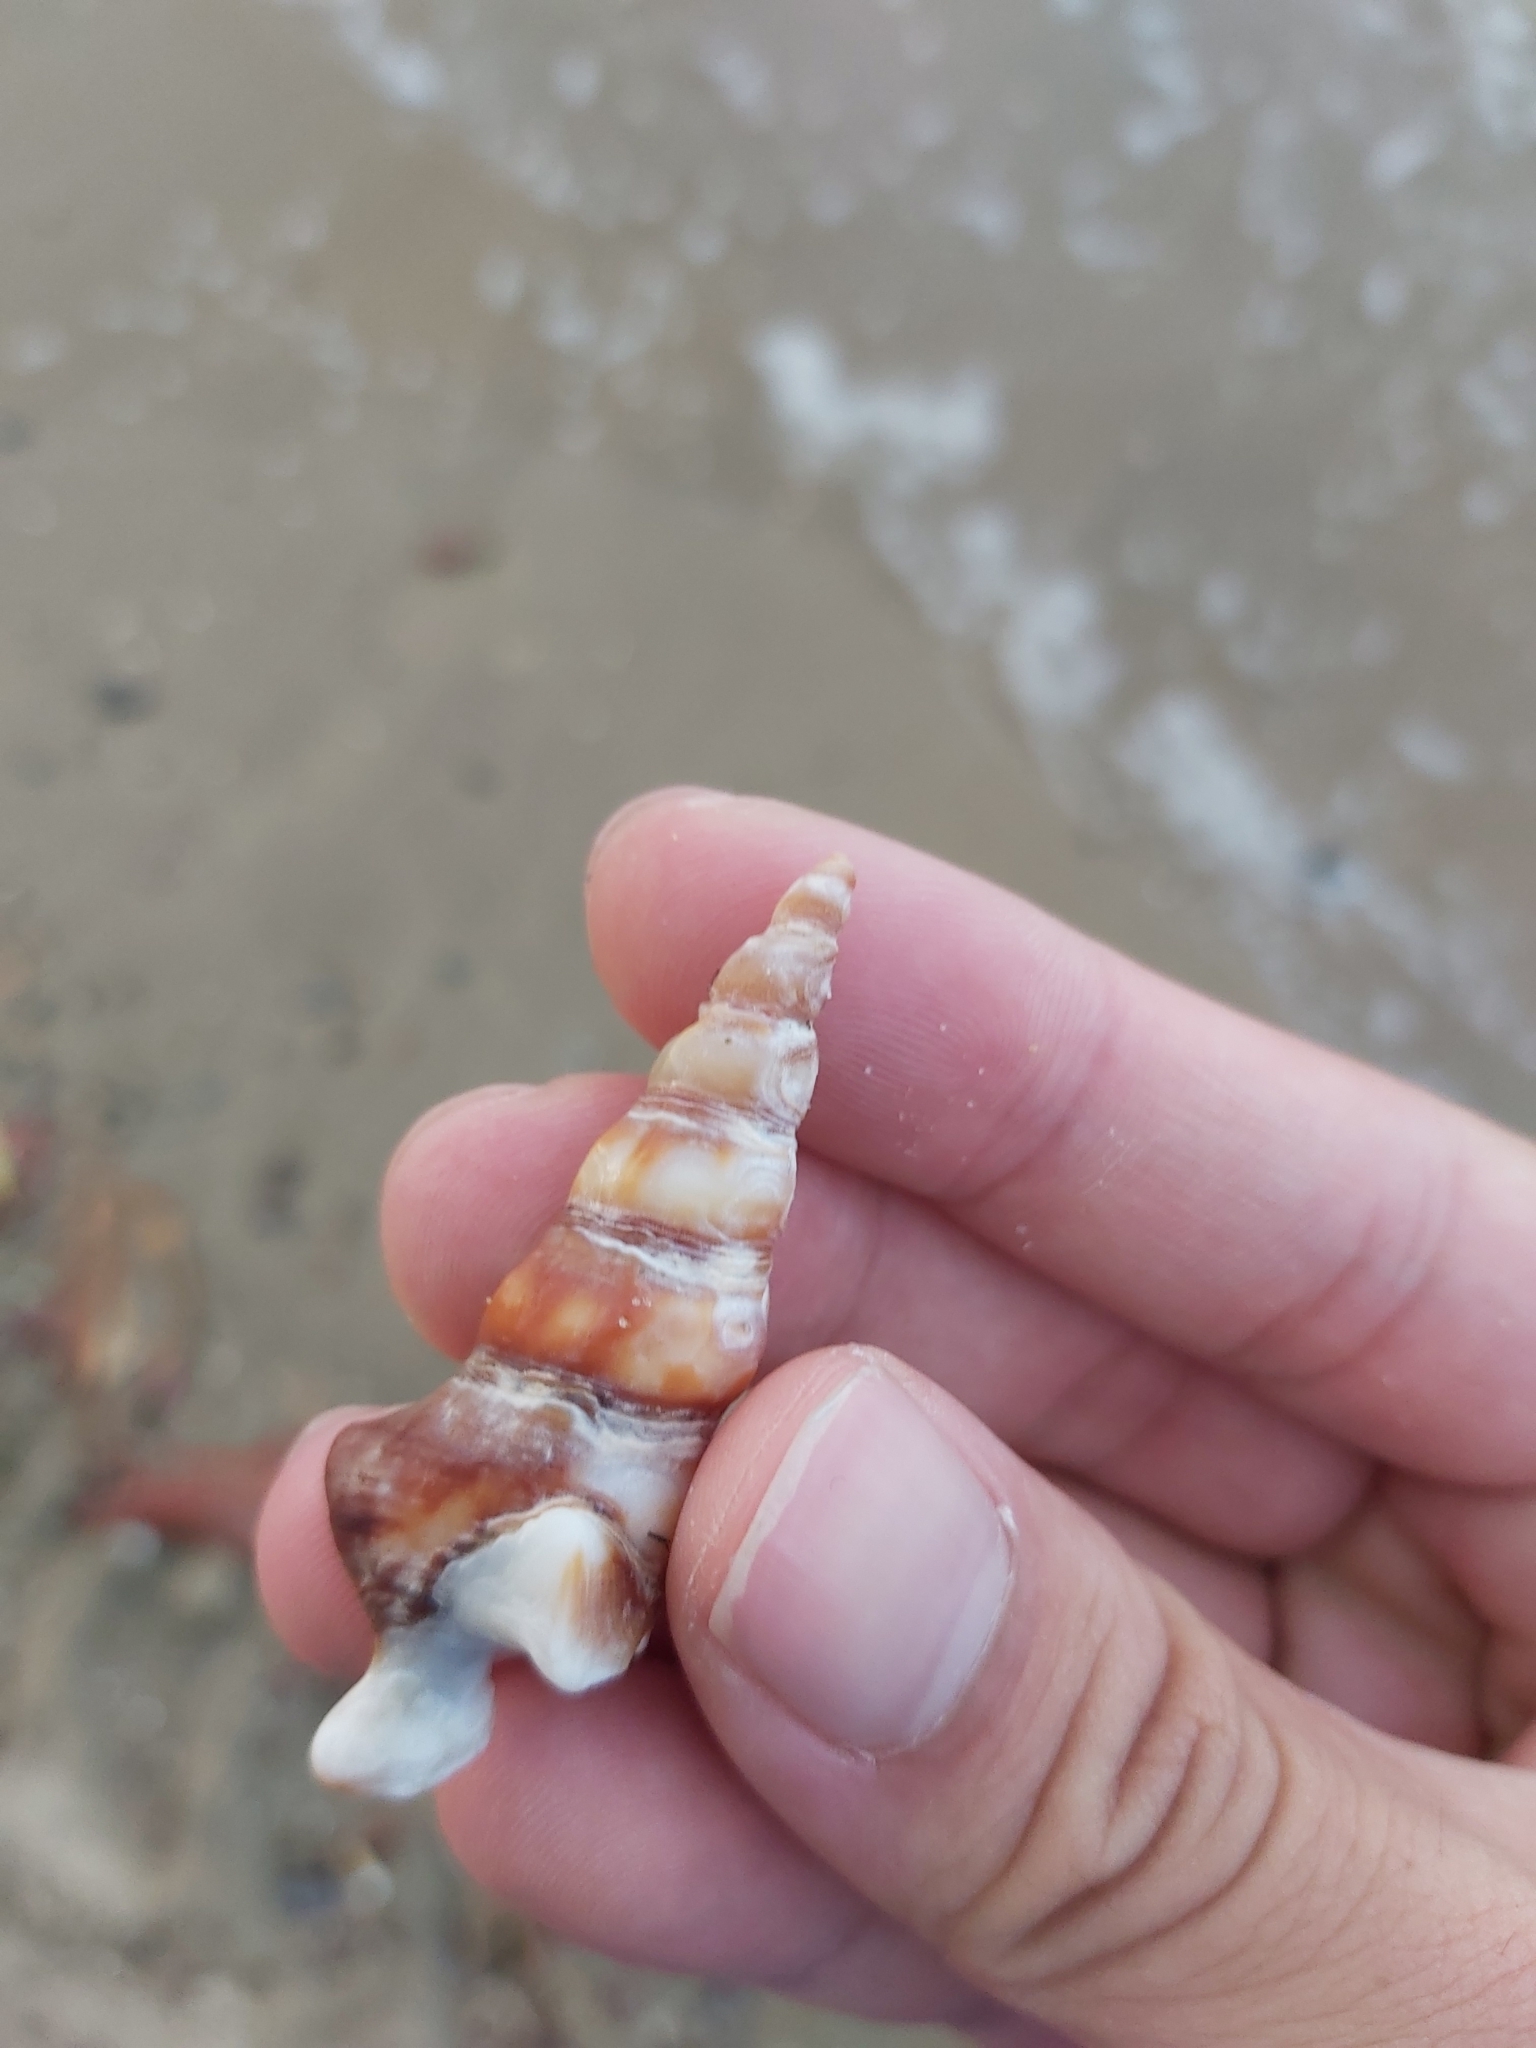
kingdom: Animalia
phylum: Mollusca
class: Gastropoda
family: Batillariidae
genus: Pyrazus
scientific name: Pyrazus ebeninus
